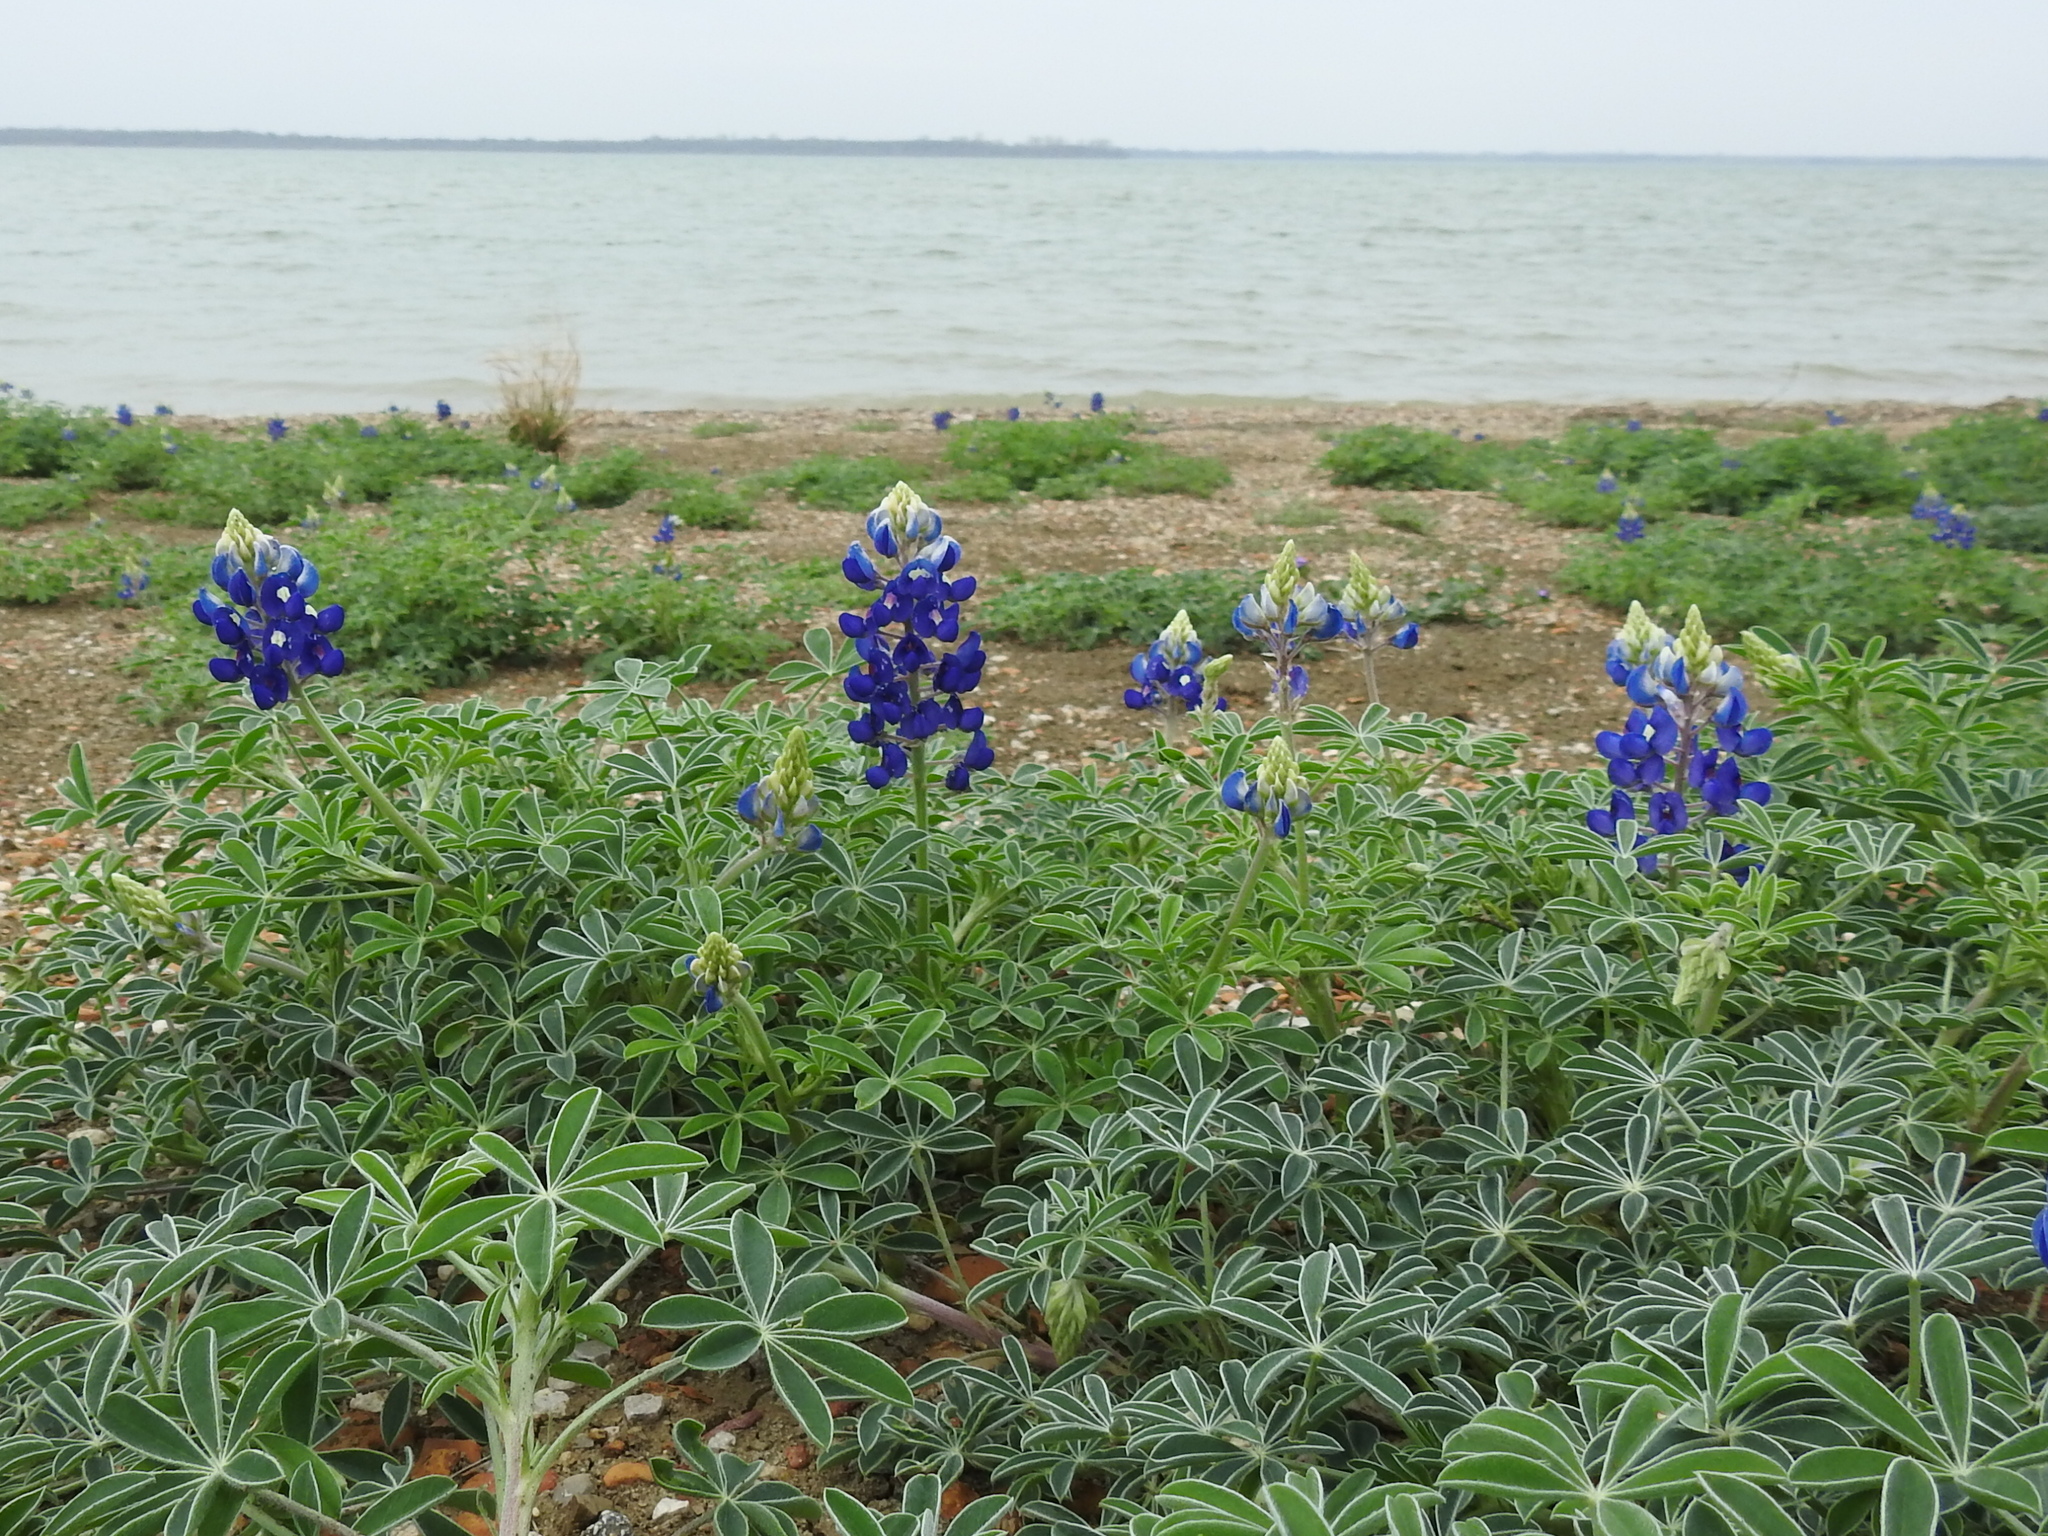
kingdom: Plantae
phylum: Tracheophyta
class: Magnoliopsida
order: Fabales
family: Fabaceae
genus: Lupinus
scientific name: Lupinus texensis
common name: Texas bluebonnet
